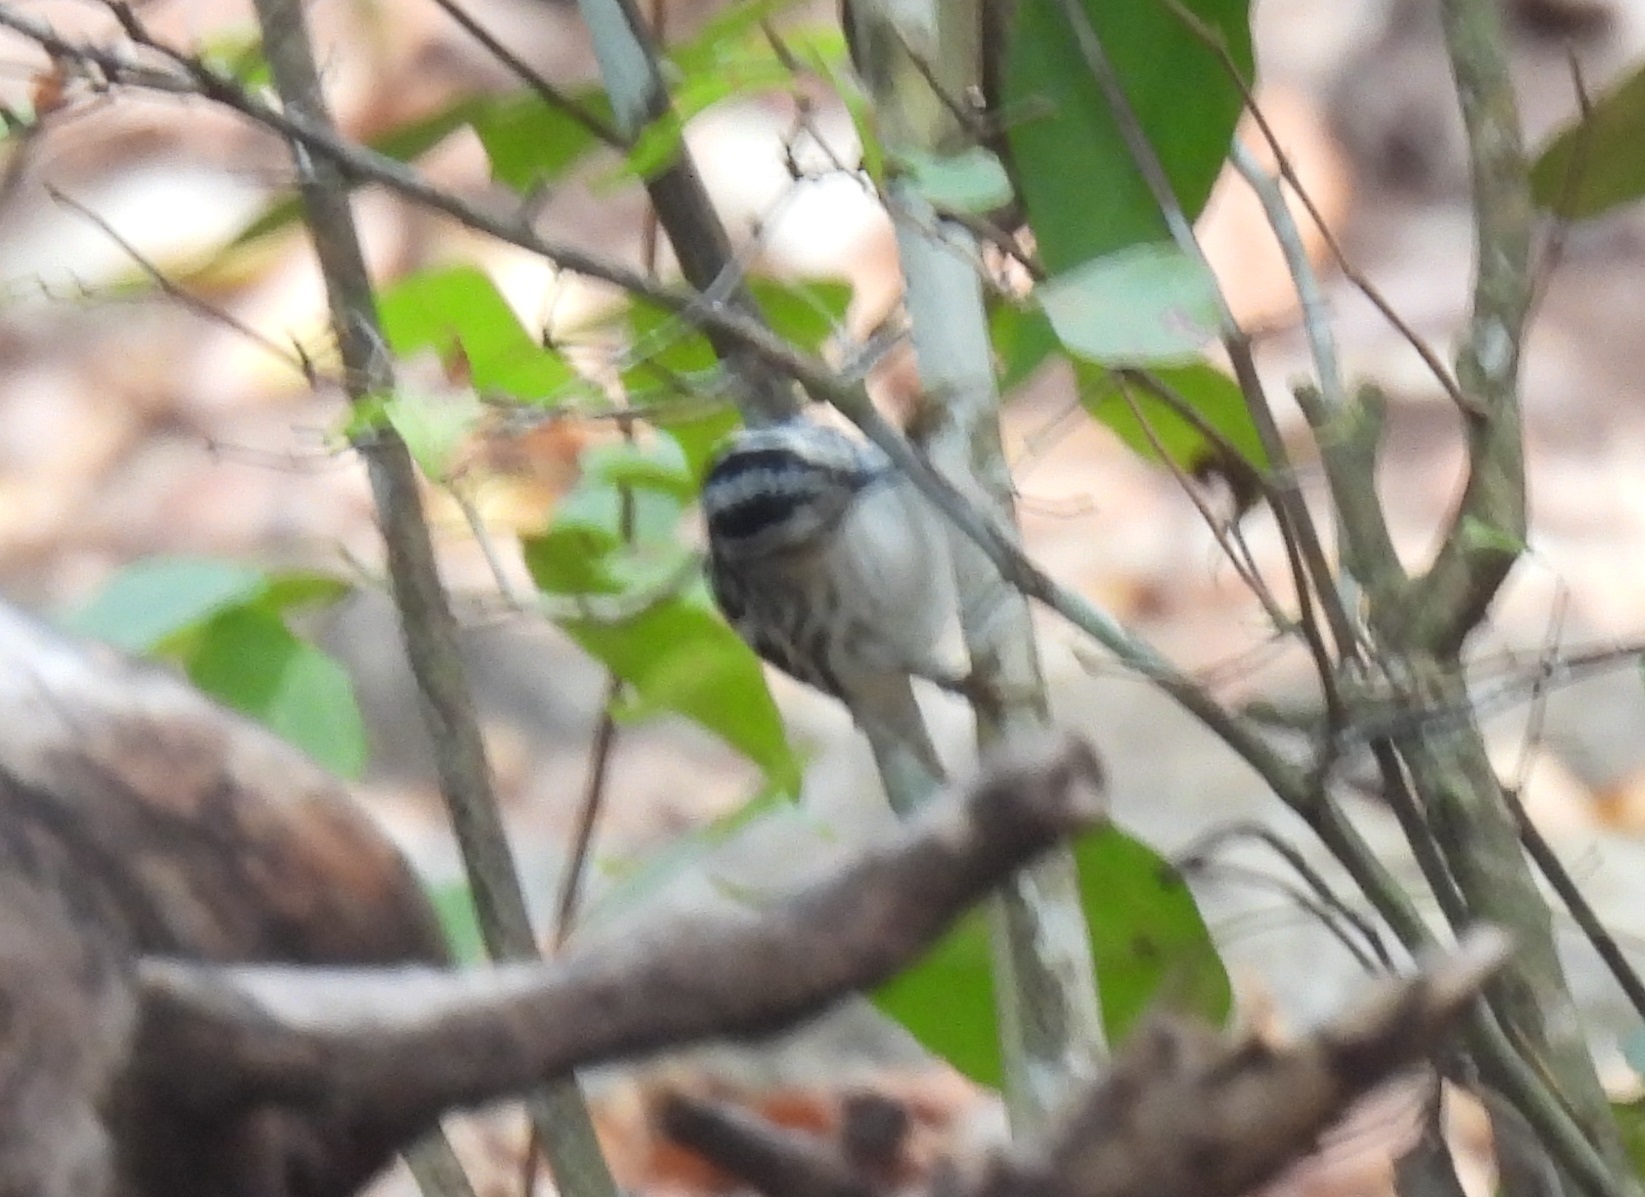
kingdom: Animalia
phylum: Chordata
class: Aves
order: Passeriformes
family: Parulidae
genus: Mniotilta
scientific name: Mniotilta varia
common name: Black-and-white warbler
